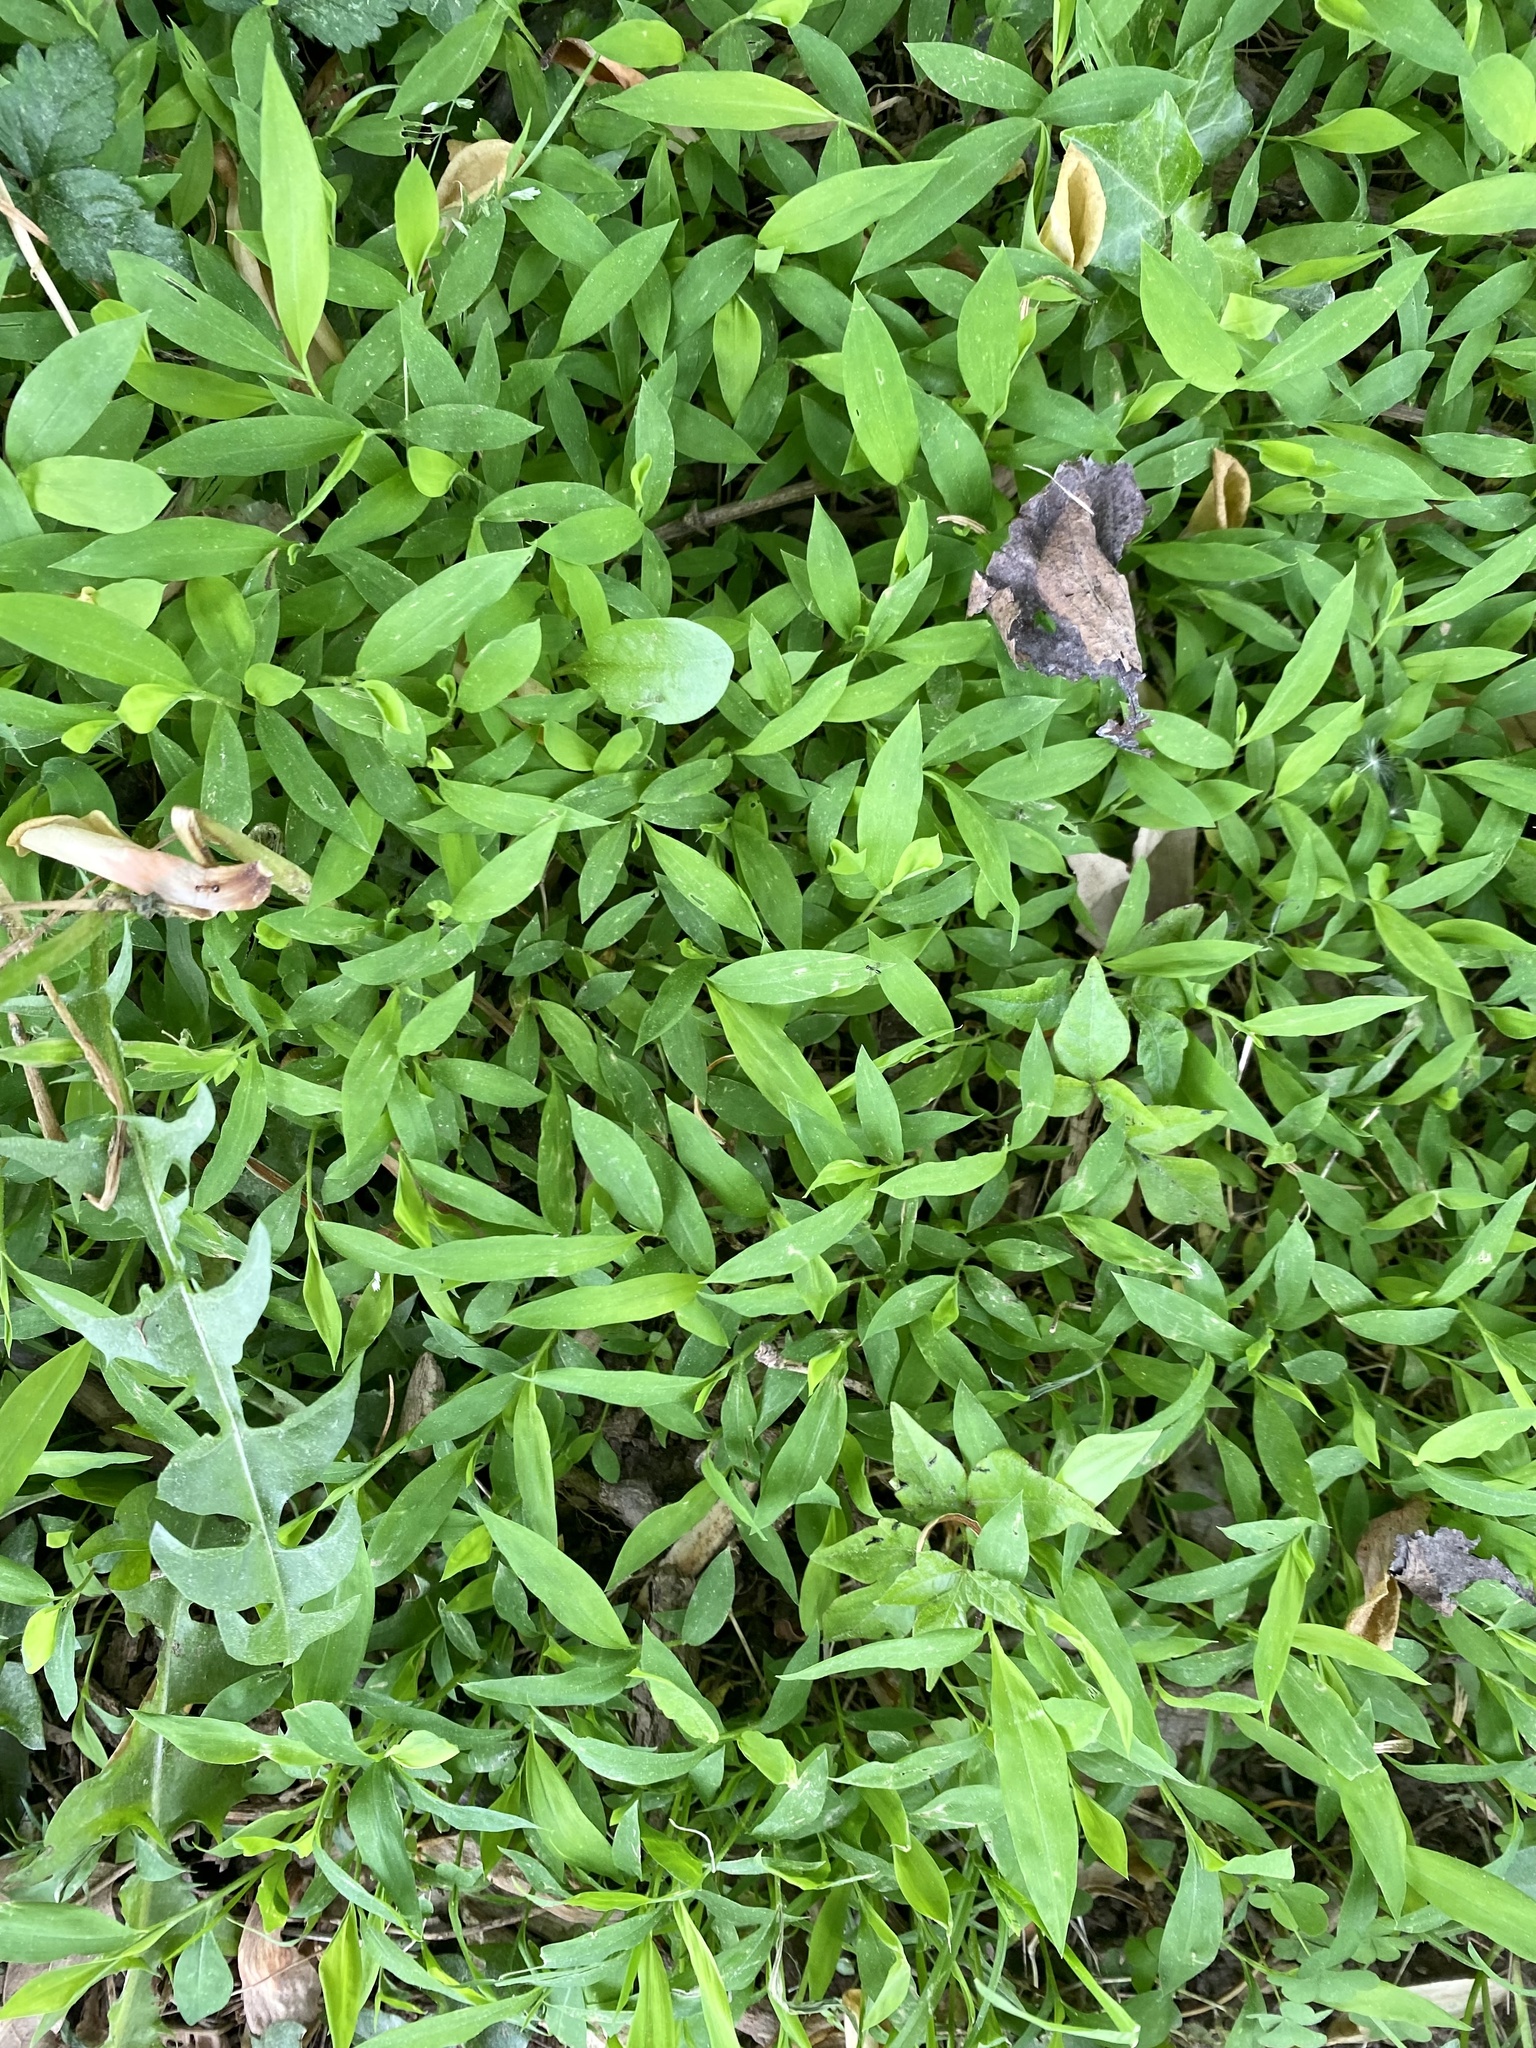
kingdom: Plantae
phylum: Tracheophyta
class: Liliopsida
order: Poales
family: Poaceae
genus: Microstegium
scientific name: Microstegium vimineum
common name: Japanese stiltgrass
